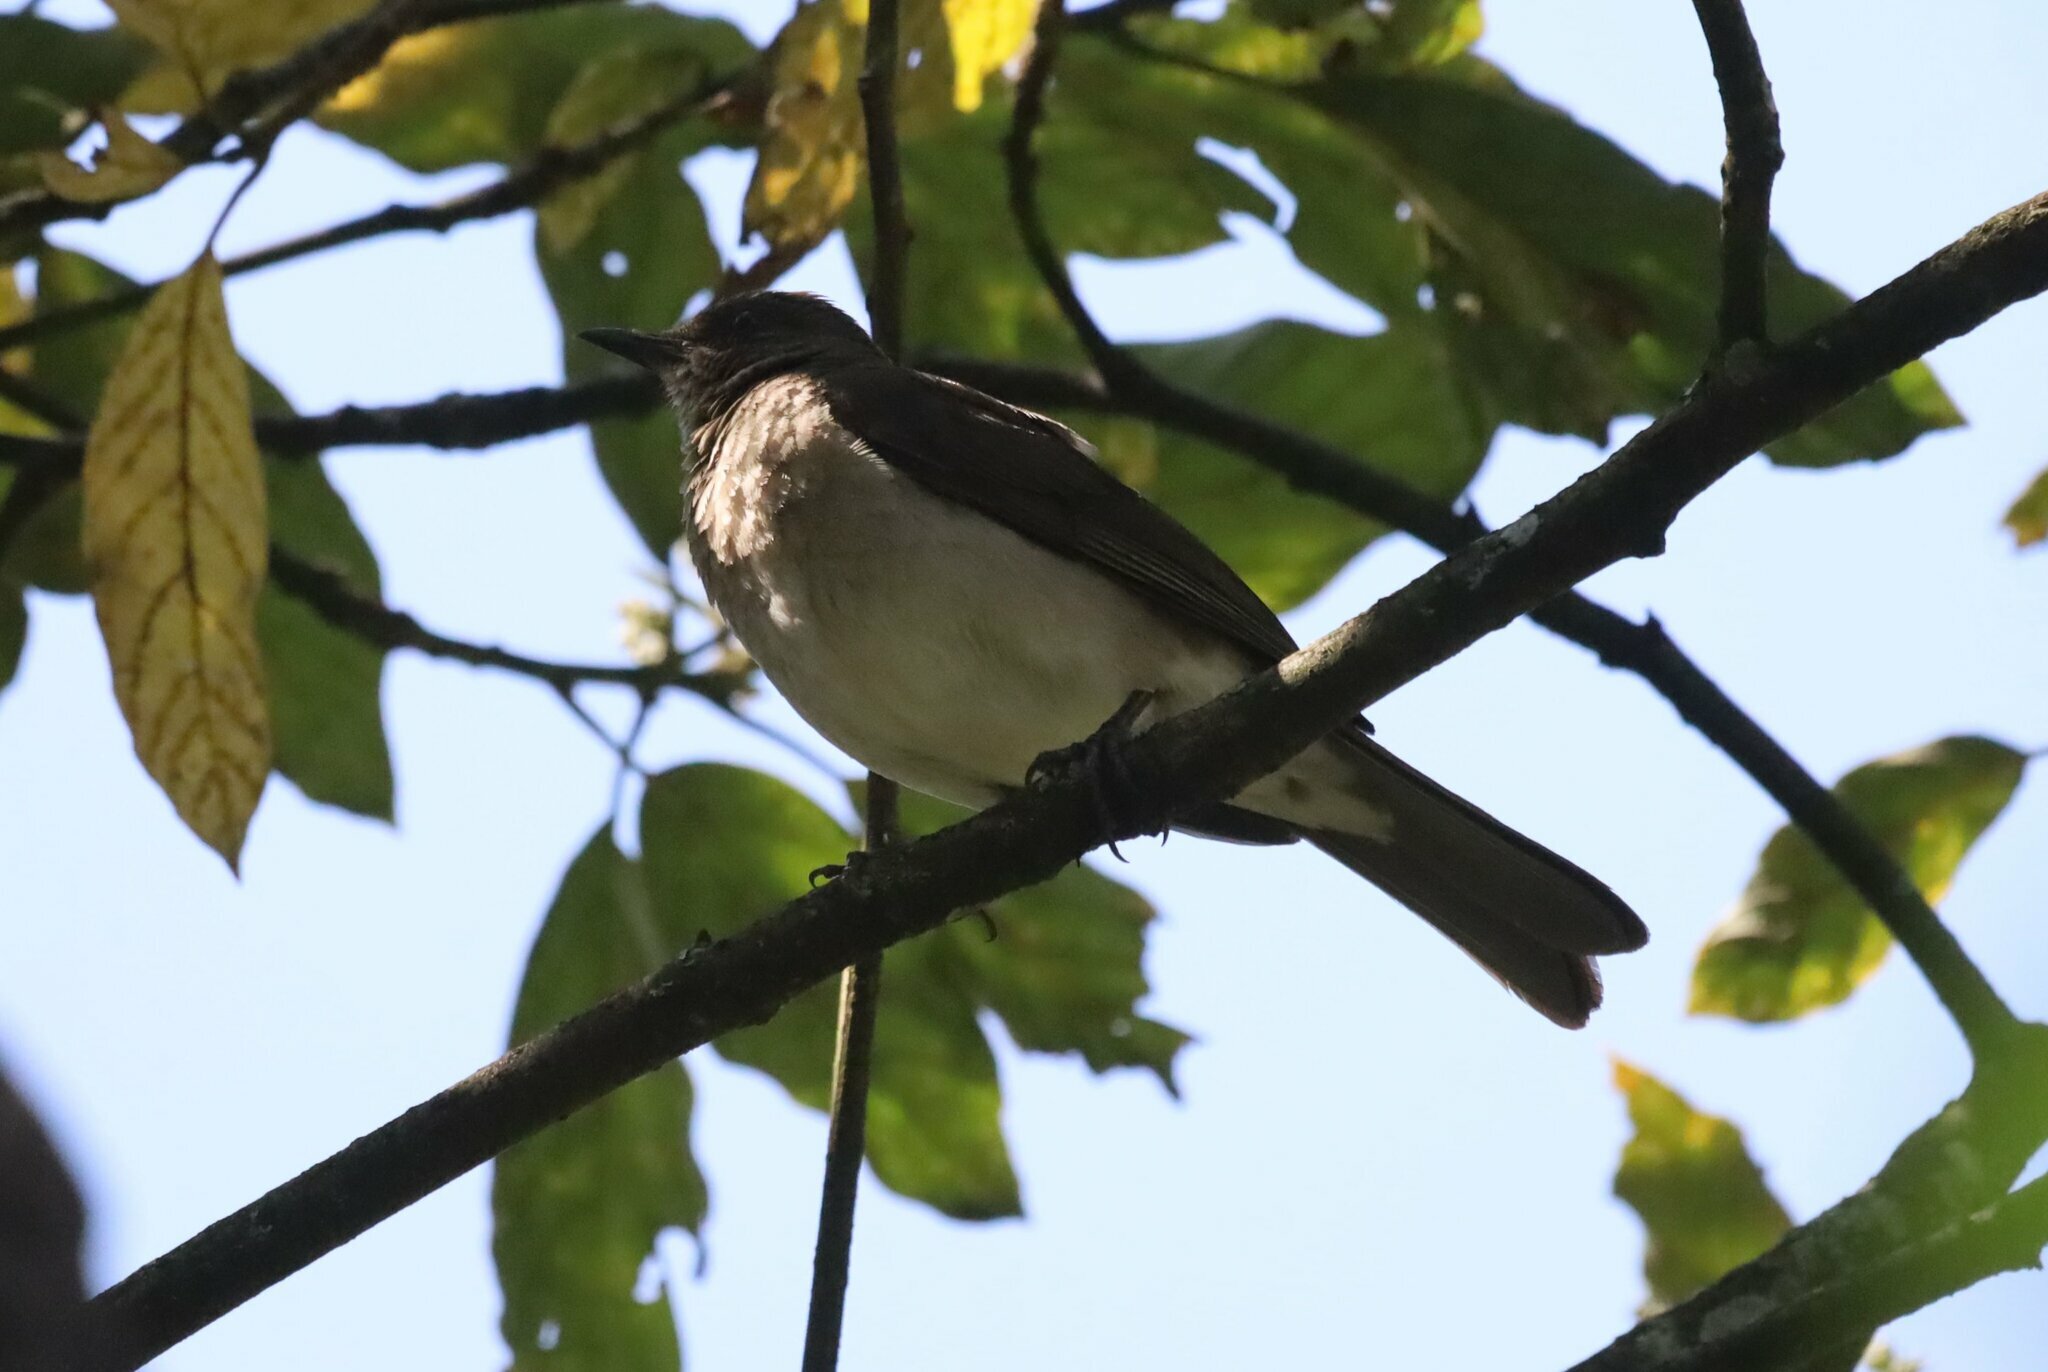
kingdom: Animalia
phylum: Chordata
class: Aves
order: Passeriformes
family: Turdidae
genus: Turdus
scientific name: Turdus ignobilis
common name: Black-billed thrush
